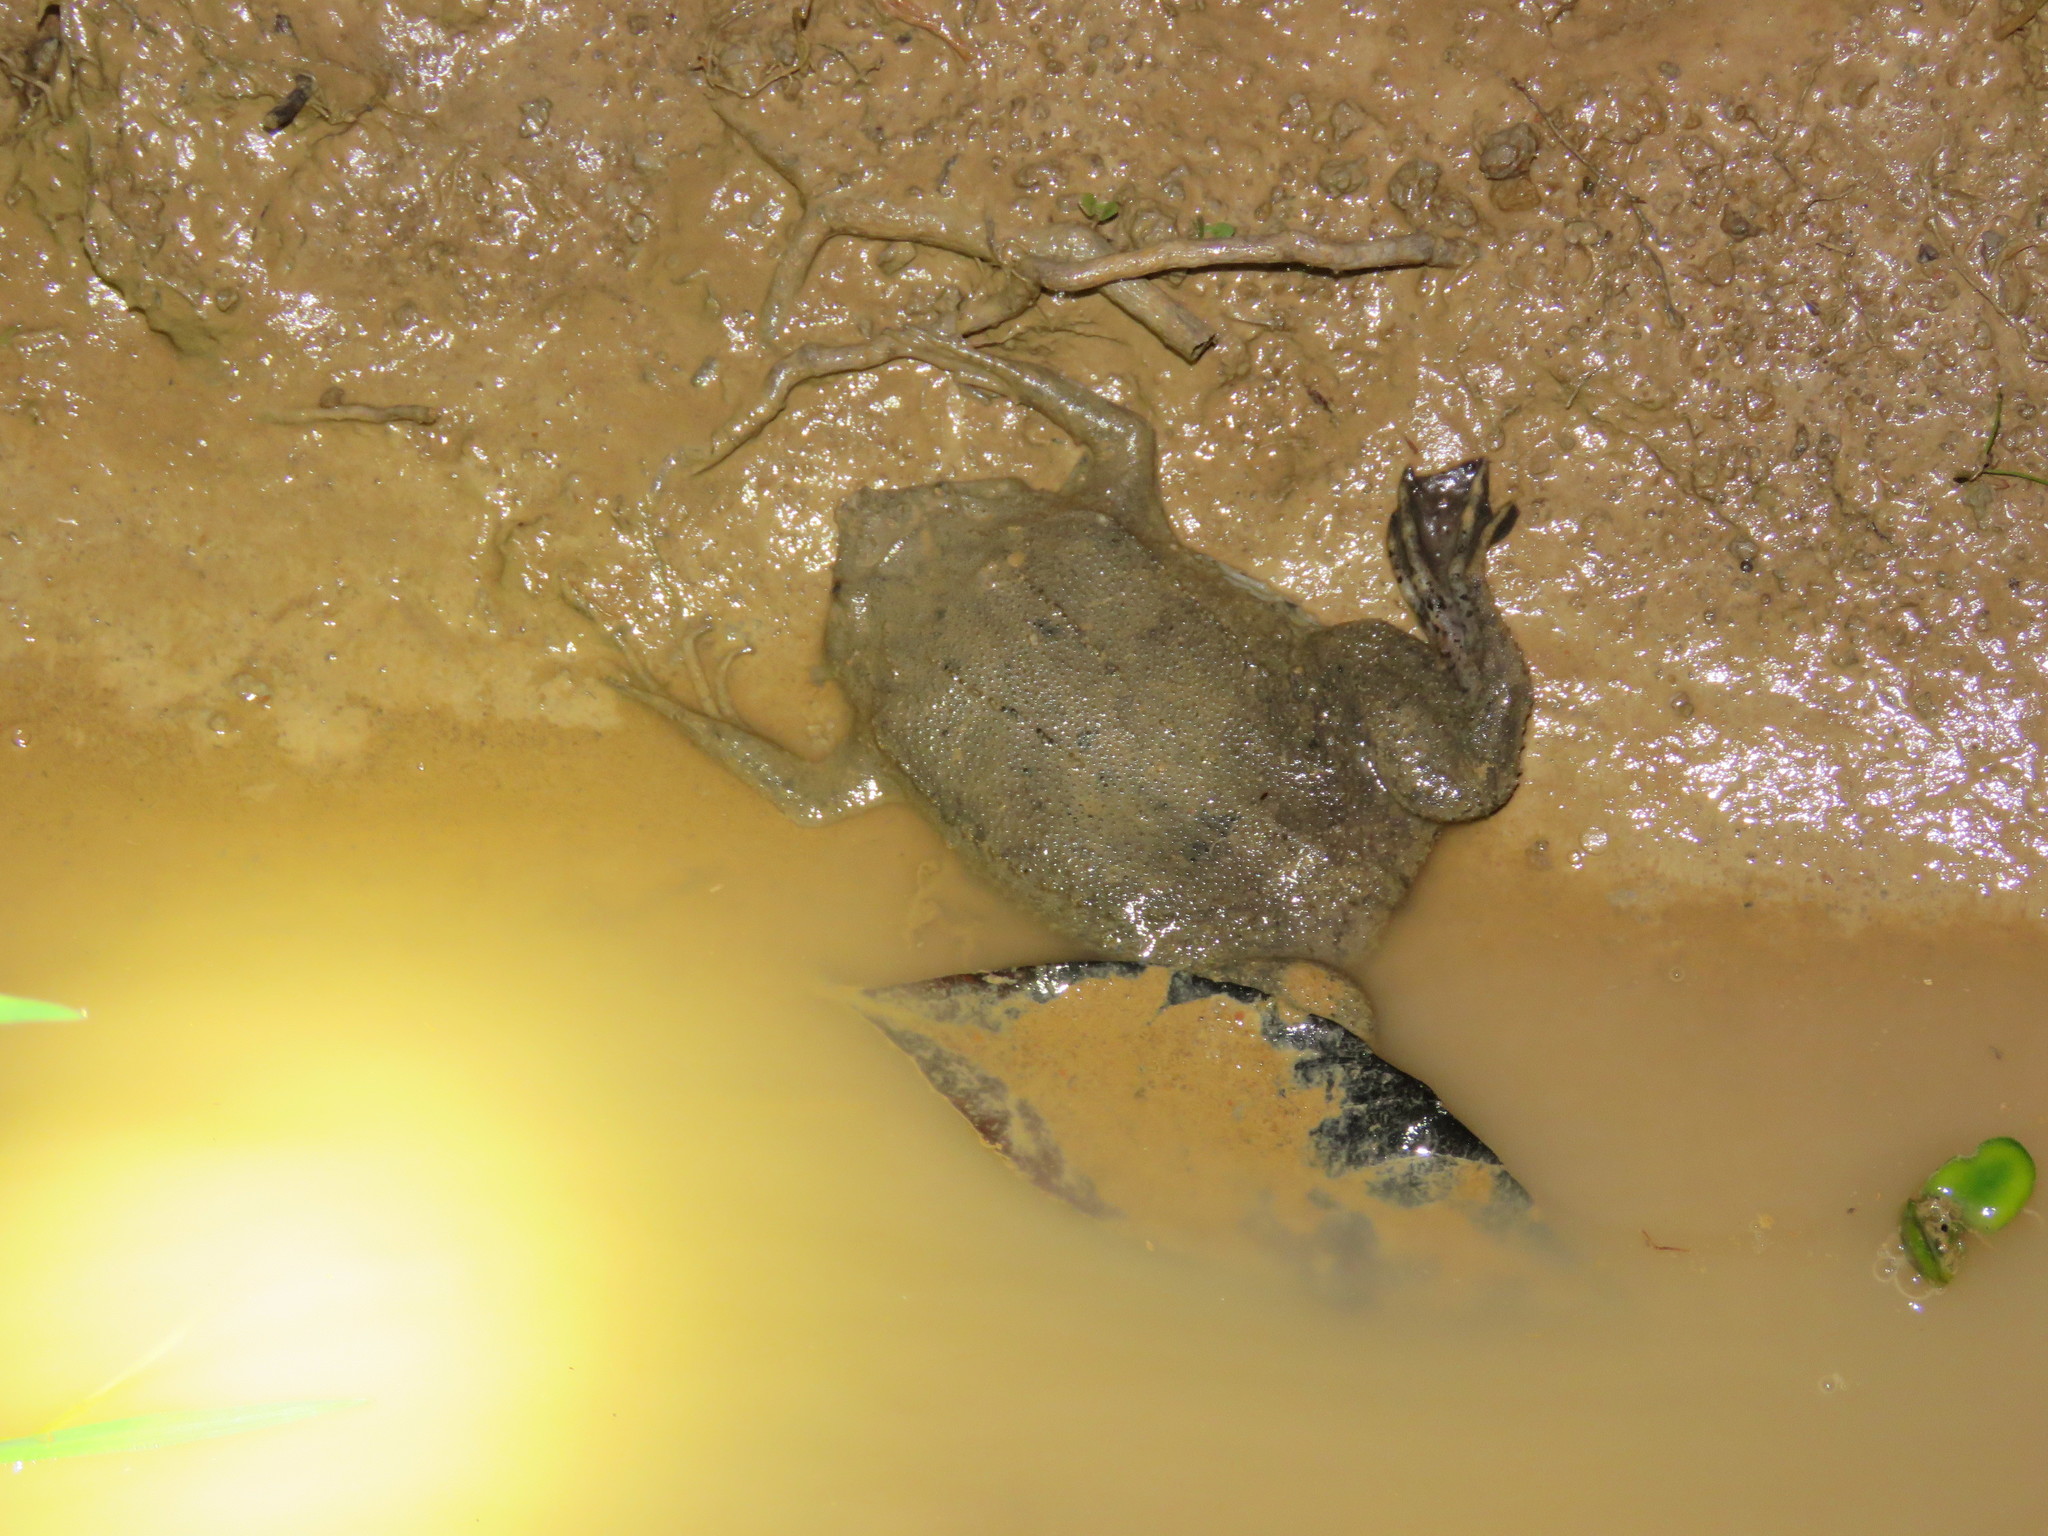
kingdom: Animalia
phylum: Chordata
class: Amphibia
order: Anura
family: Pipidae
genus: Pipa
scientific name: Pipa pipa
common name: Surinam toad
